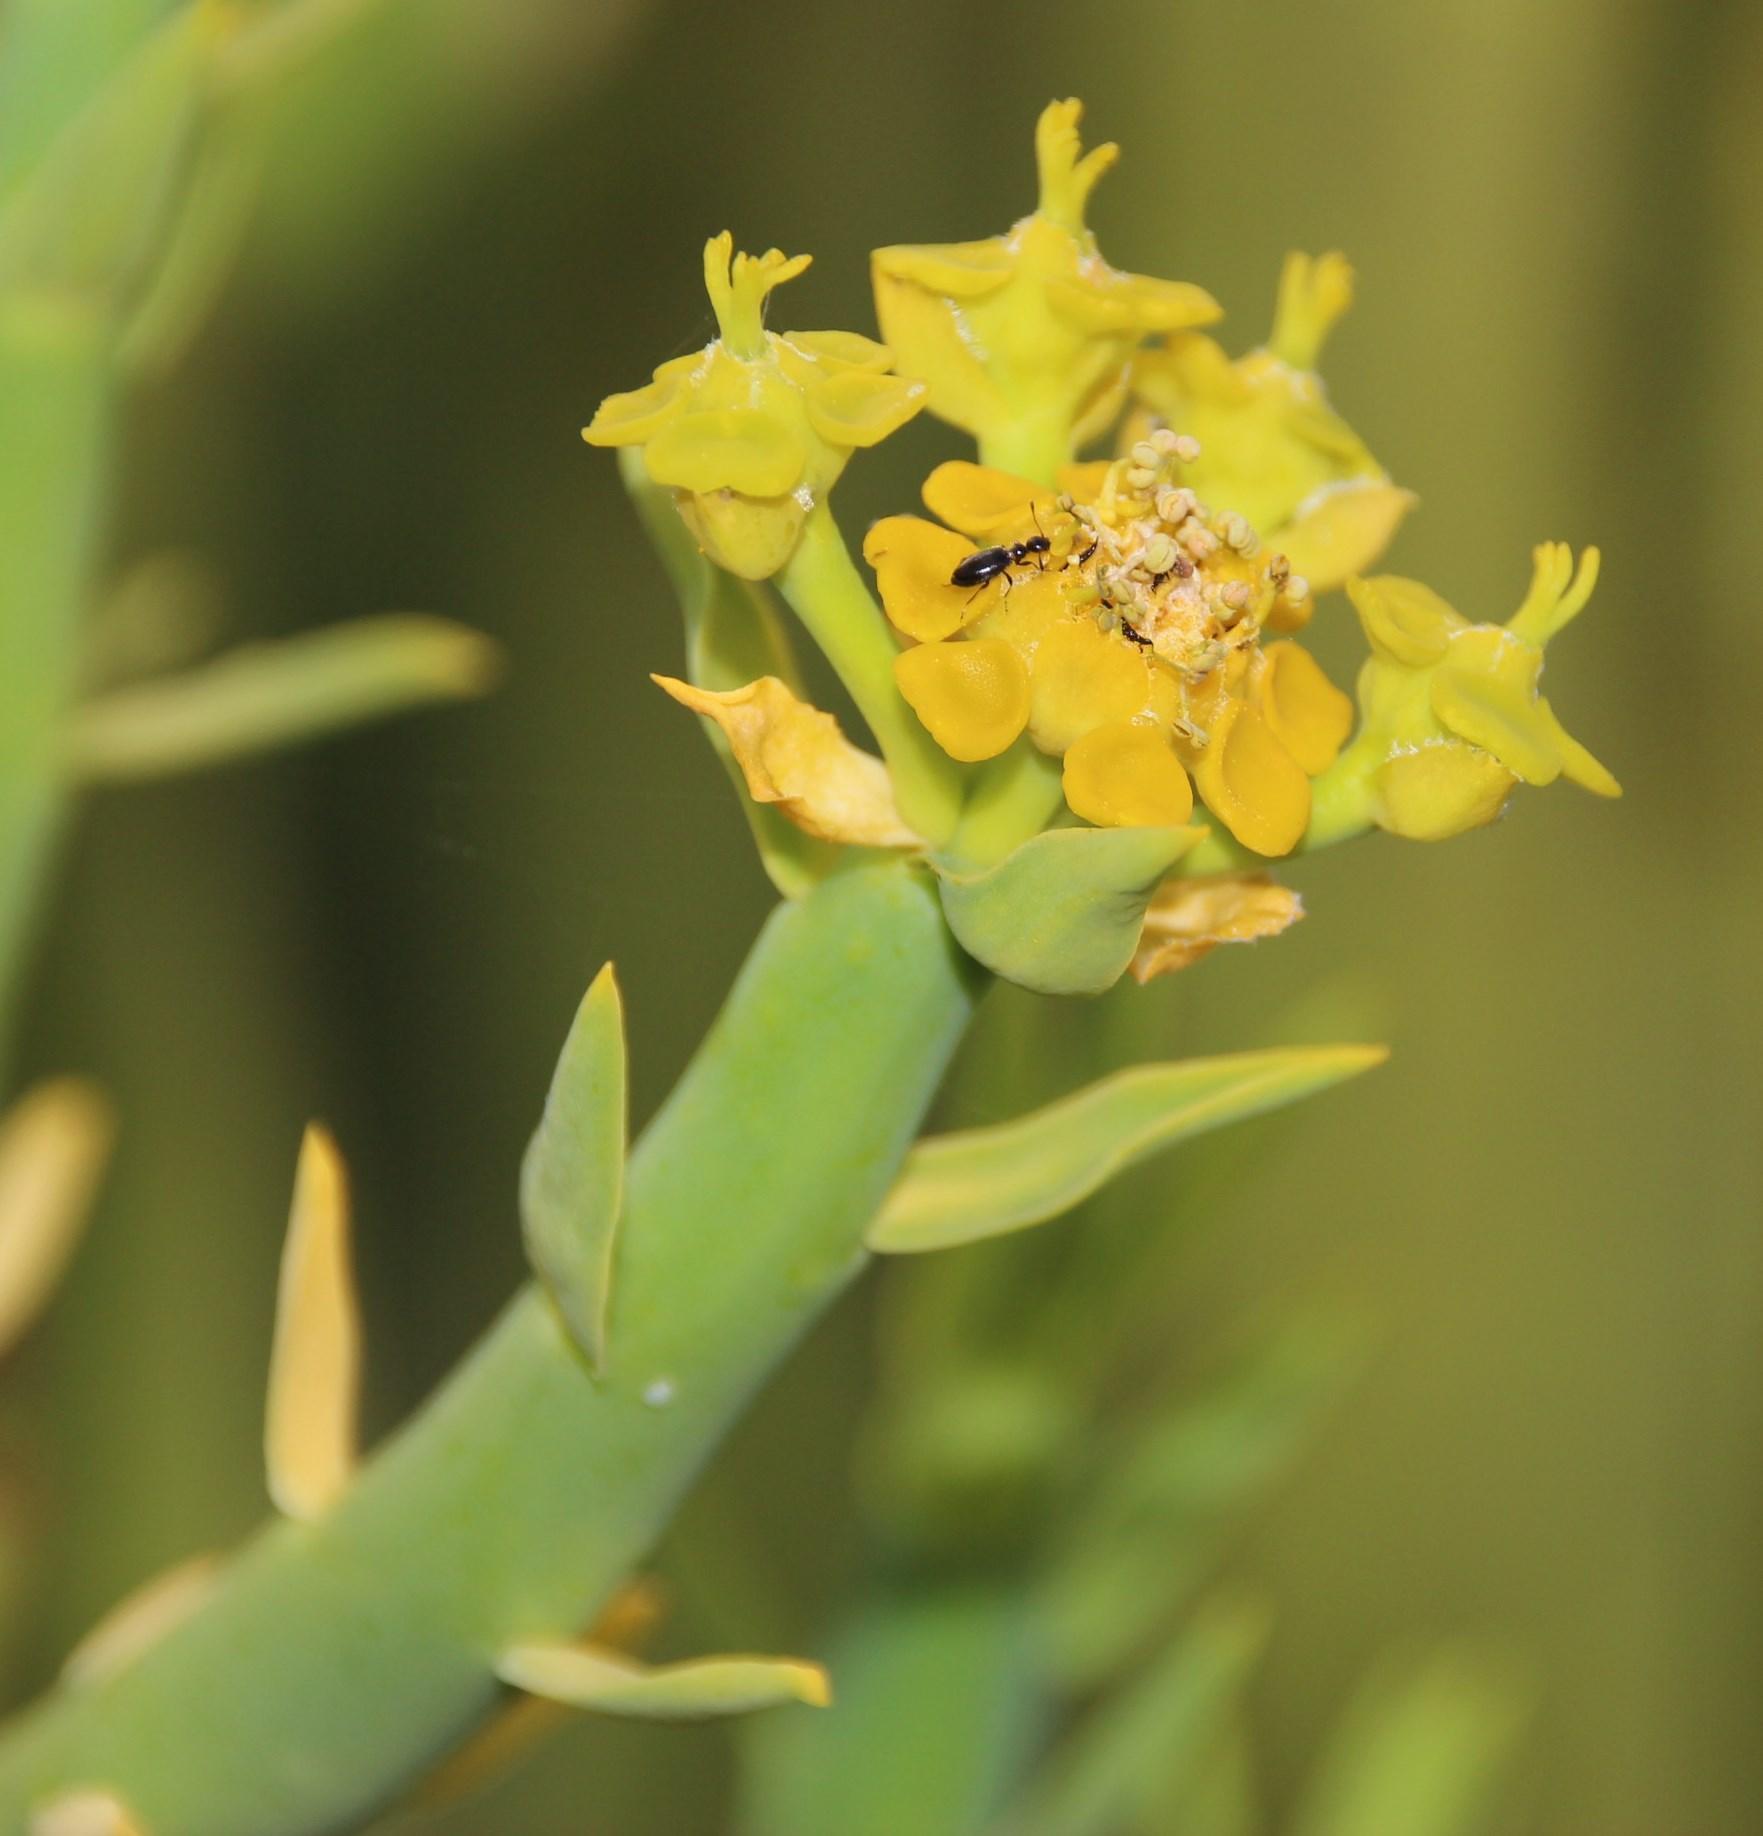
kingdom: Plantae
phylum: Tracheophyta
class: Magnoliopsida
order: Malpighiales
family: Euphorbiaceae
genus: Euphorbia
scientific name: Euphorbia mauritanica
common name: Jackal's-food
